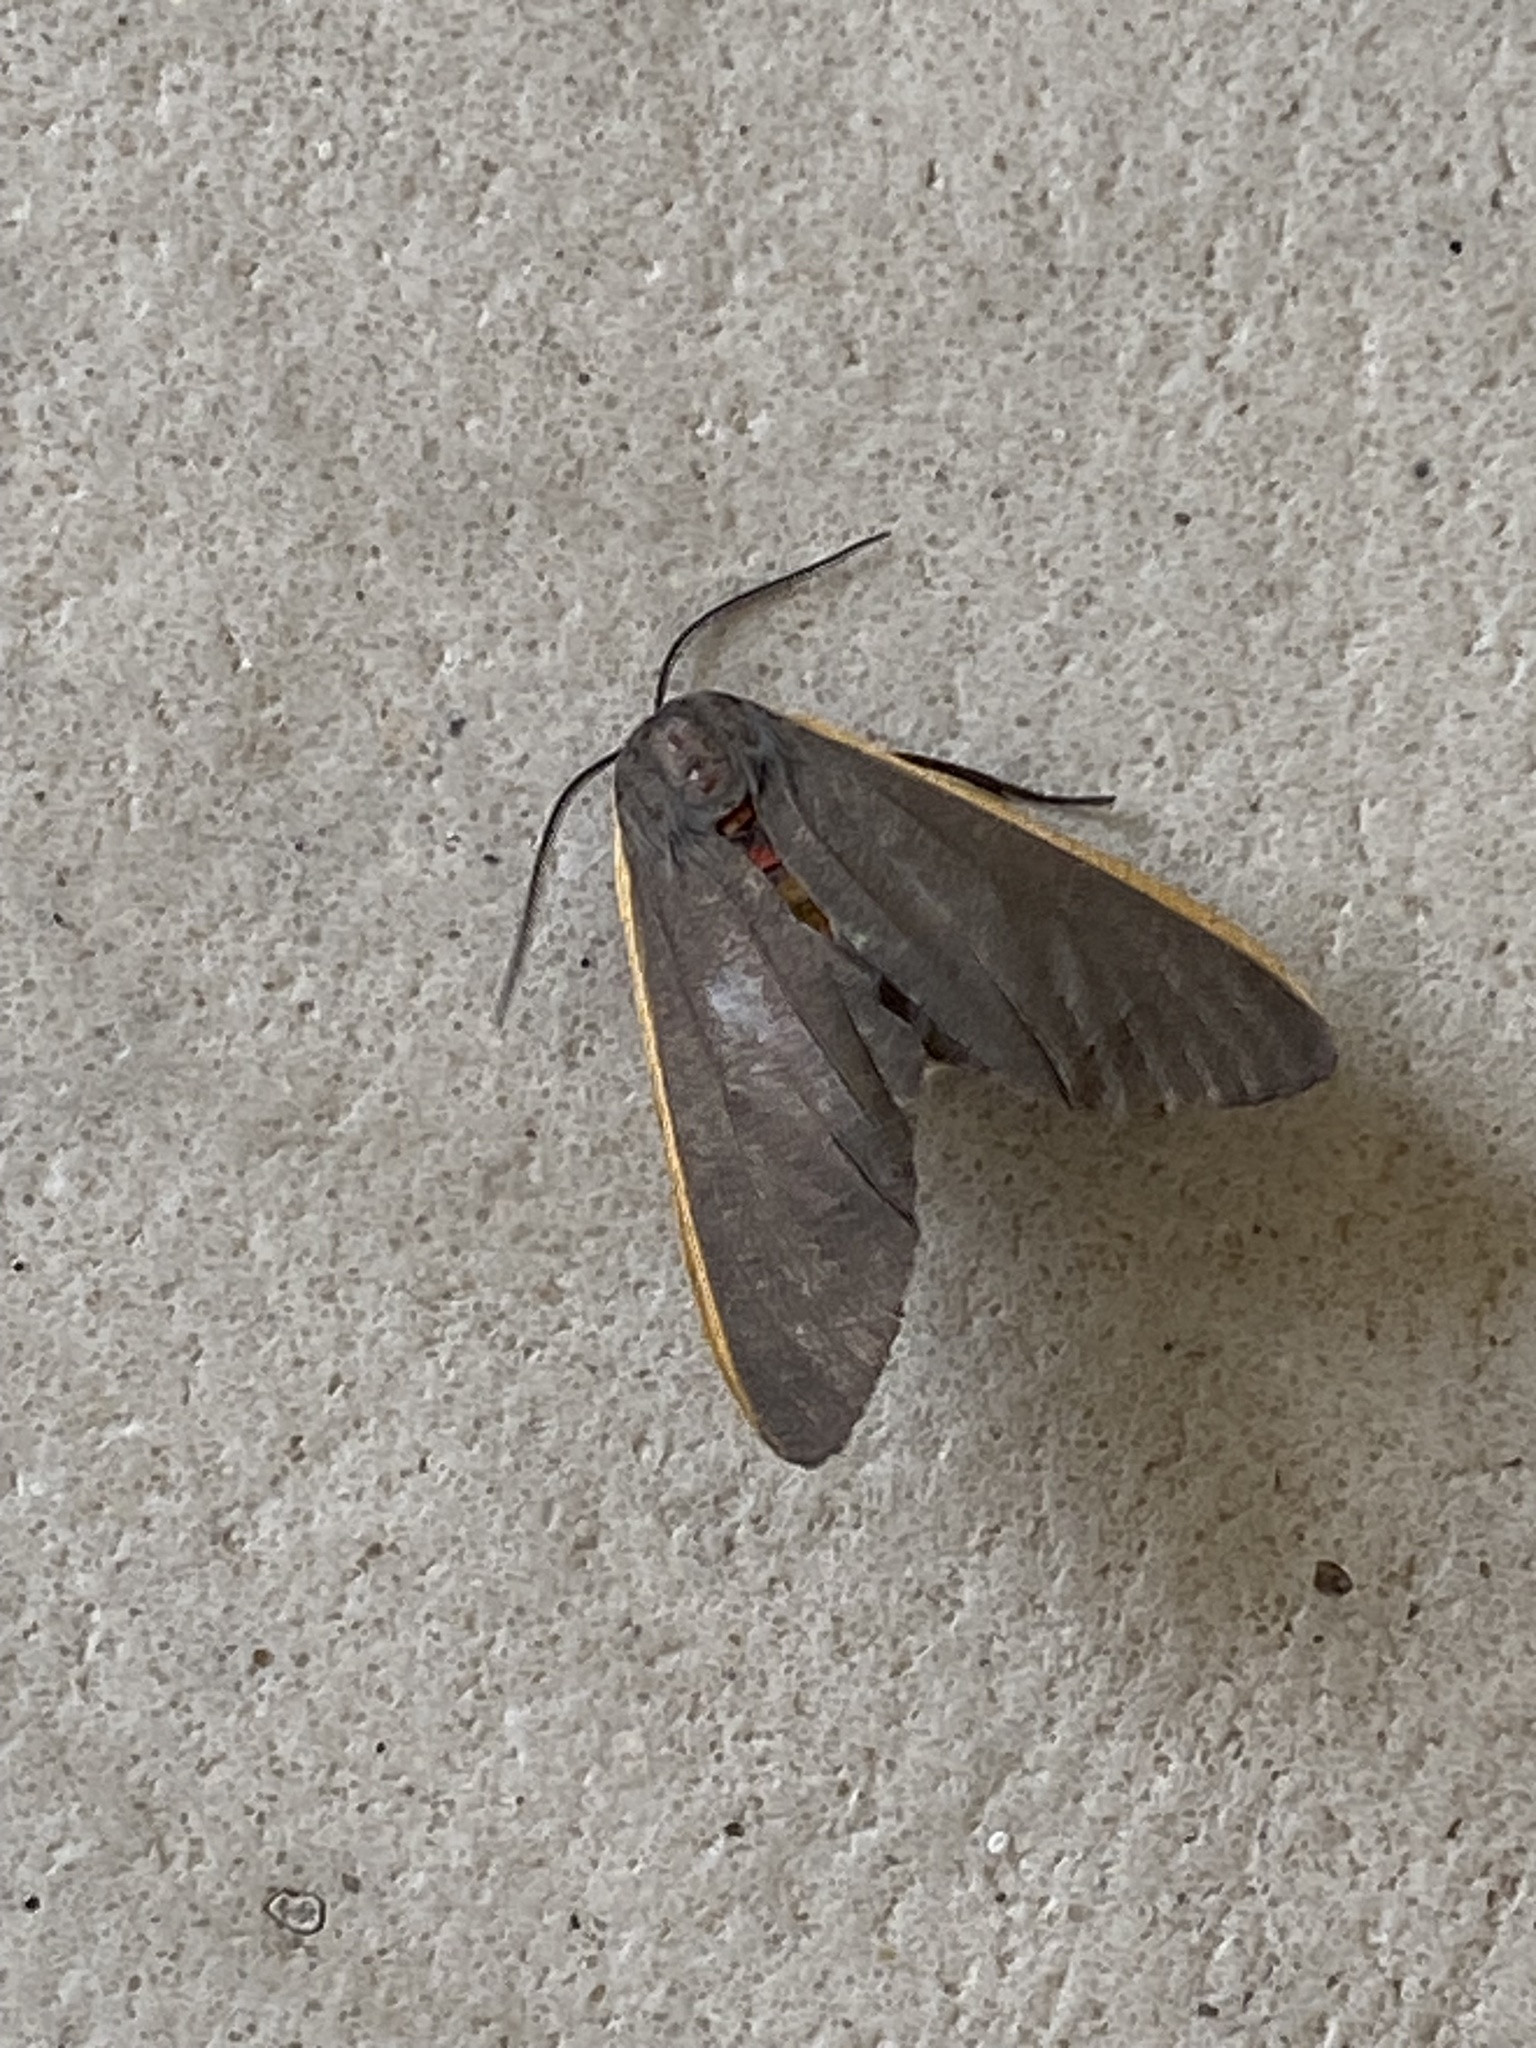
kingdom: Animalia
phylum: Arthropoda
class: Insecta
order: Lepidoptera
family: Erebidae
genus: Euchaetes
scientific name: Euchaetes antica
